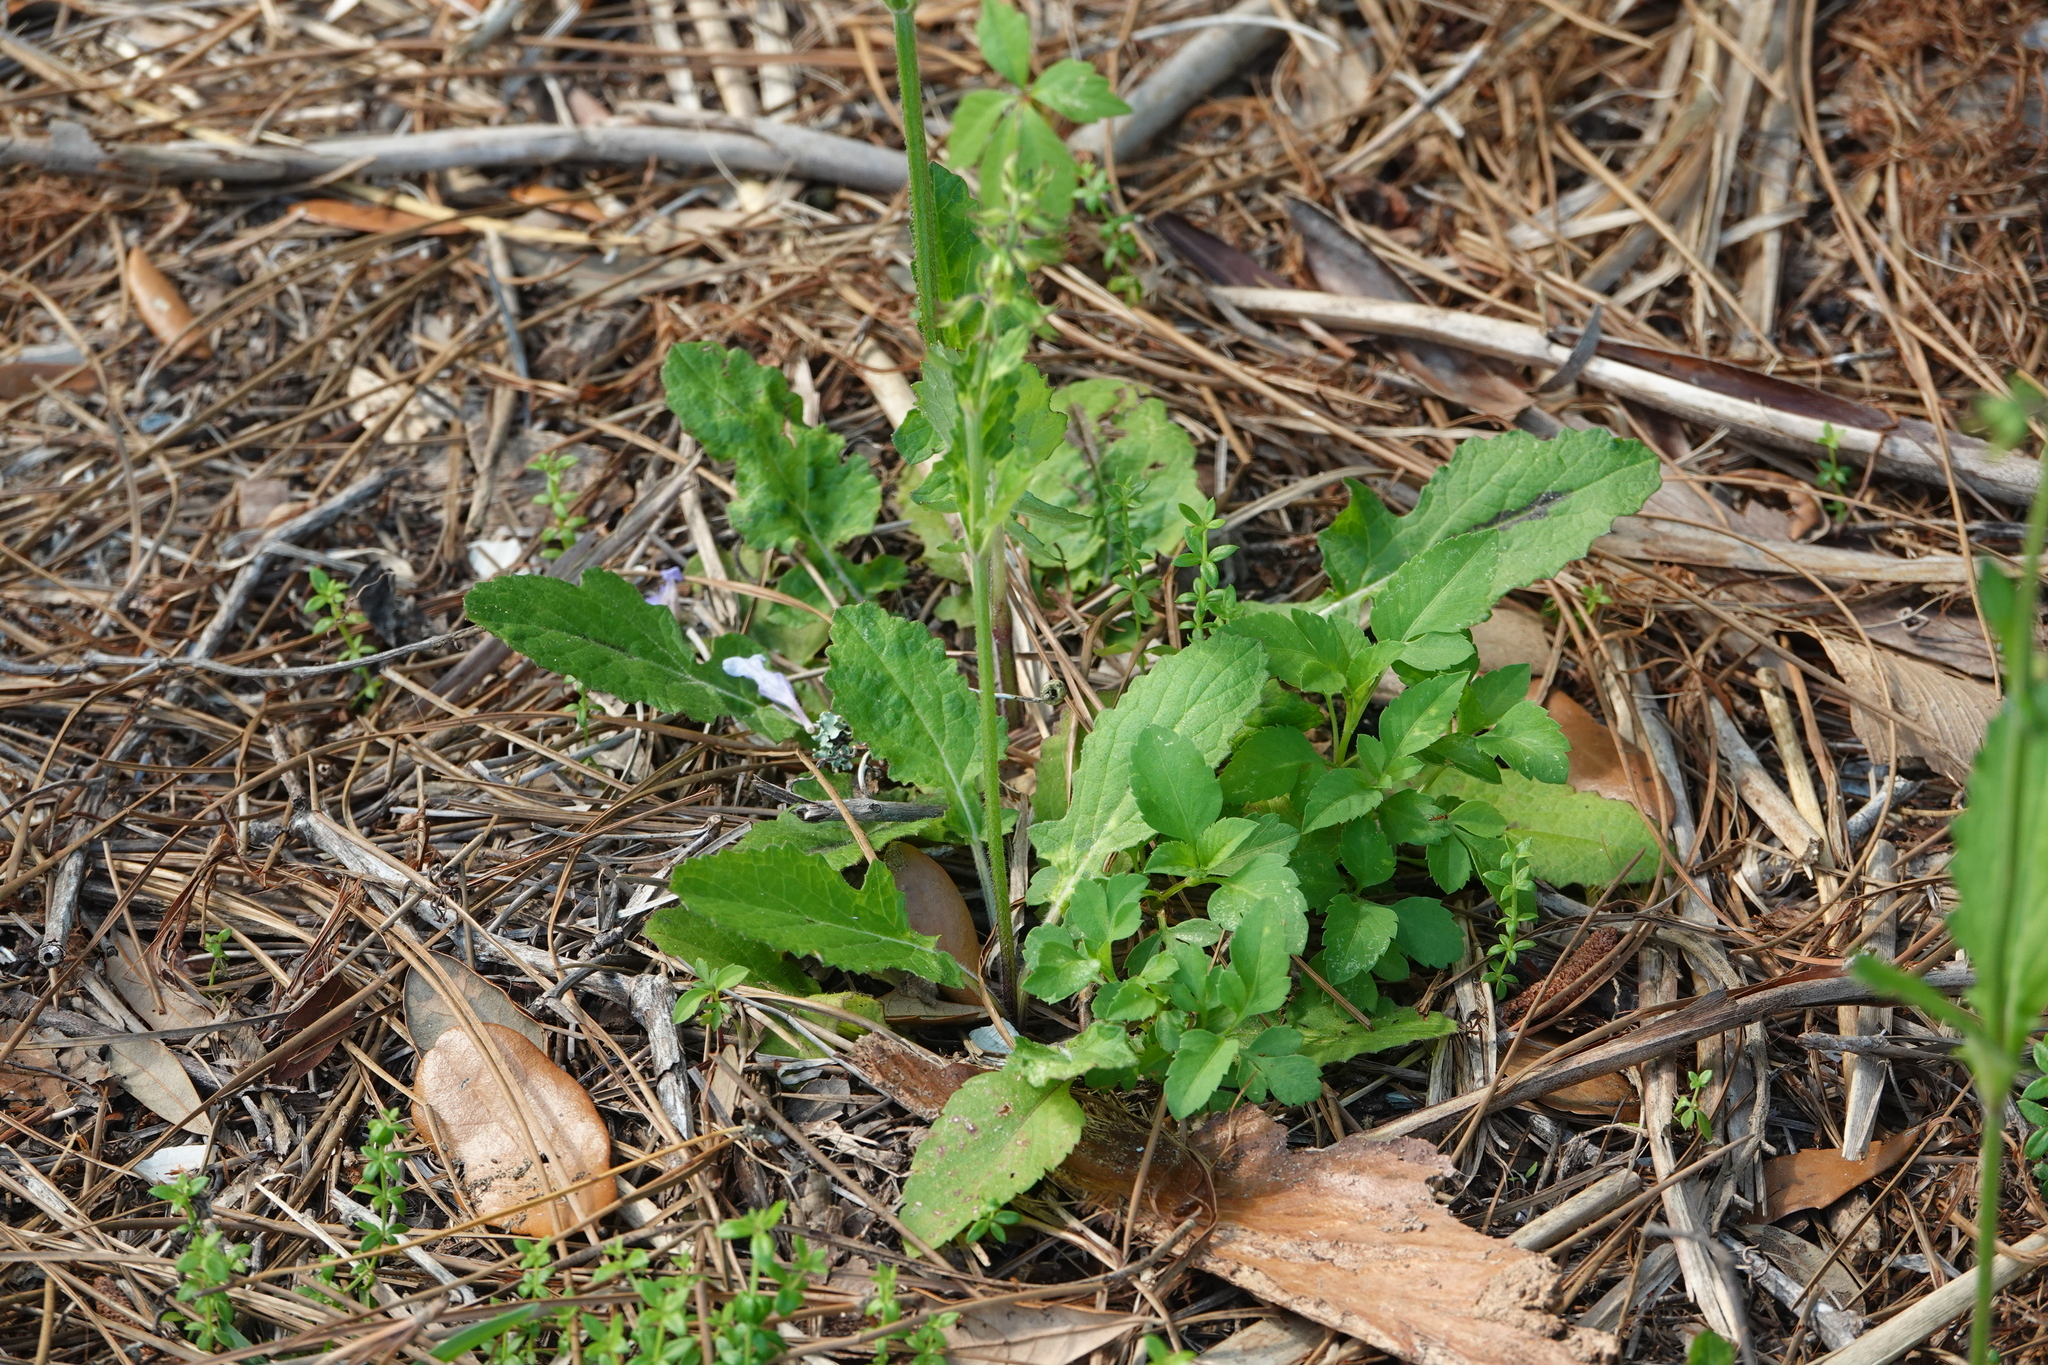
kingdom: Plantae
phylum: Tracheophyta
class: Magnoliopsida
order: Lamiales
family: Lamiaceae
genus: Salvia
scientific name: Salvia lyrata
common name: Cancerweed
